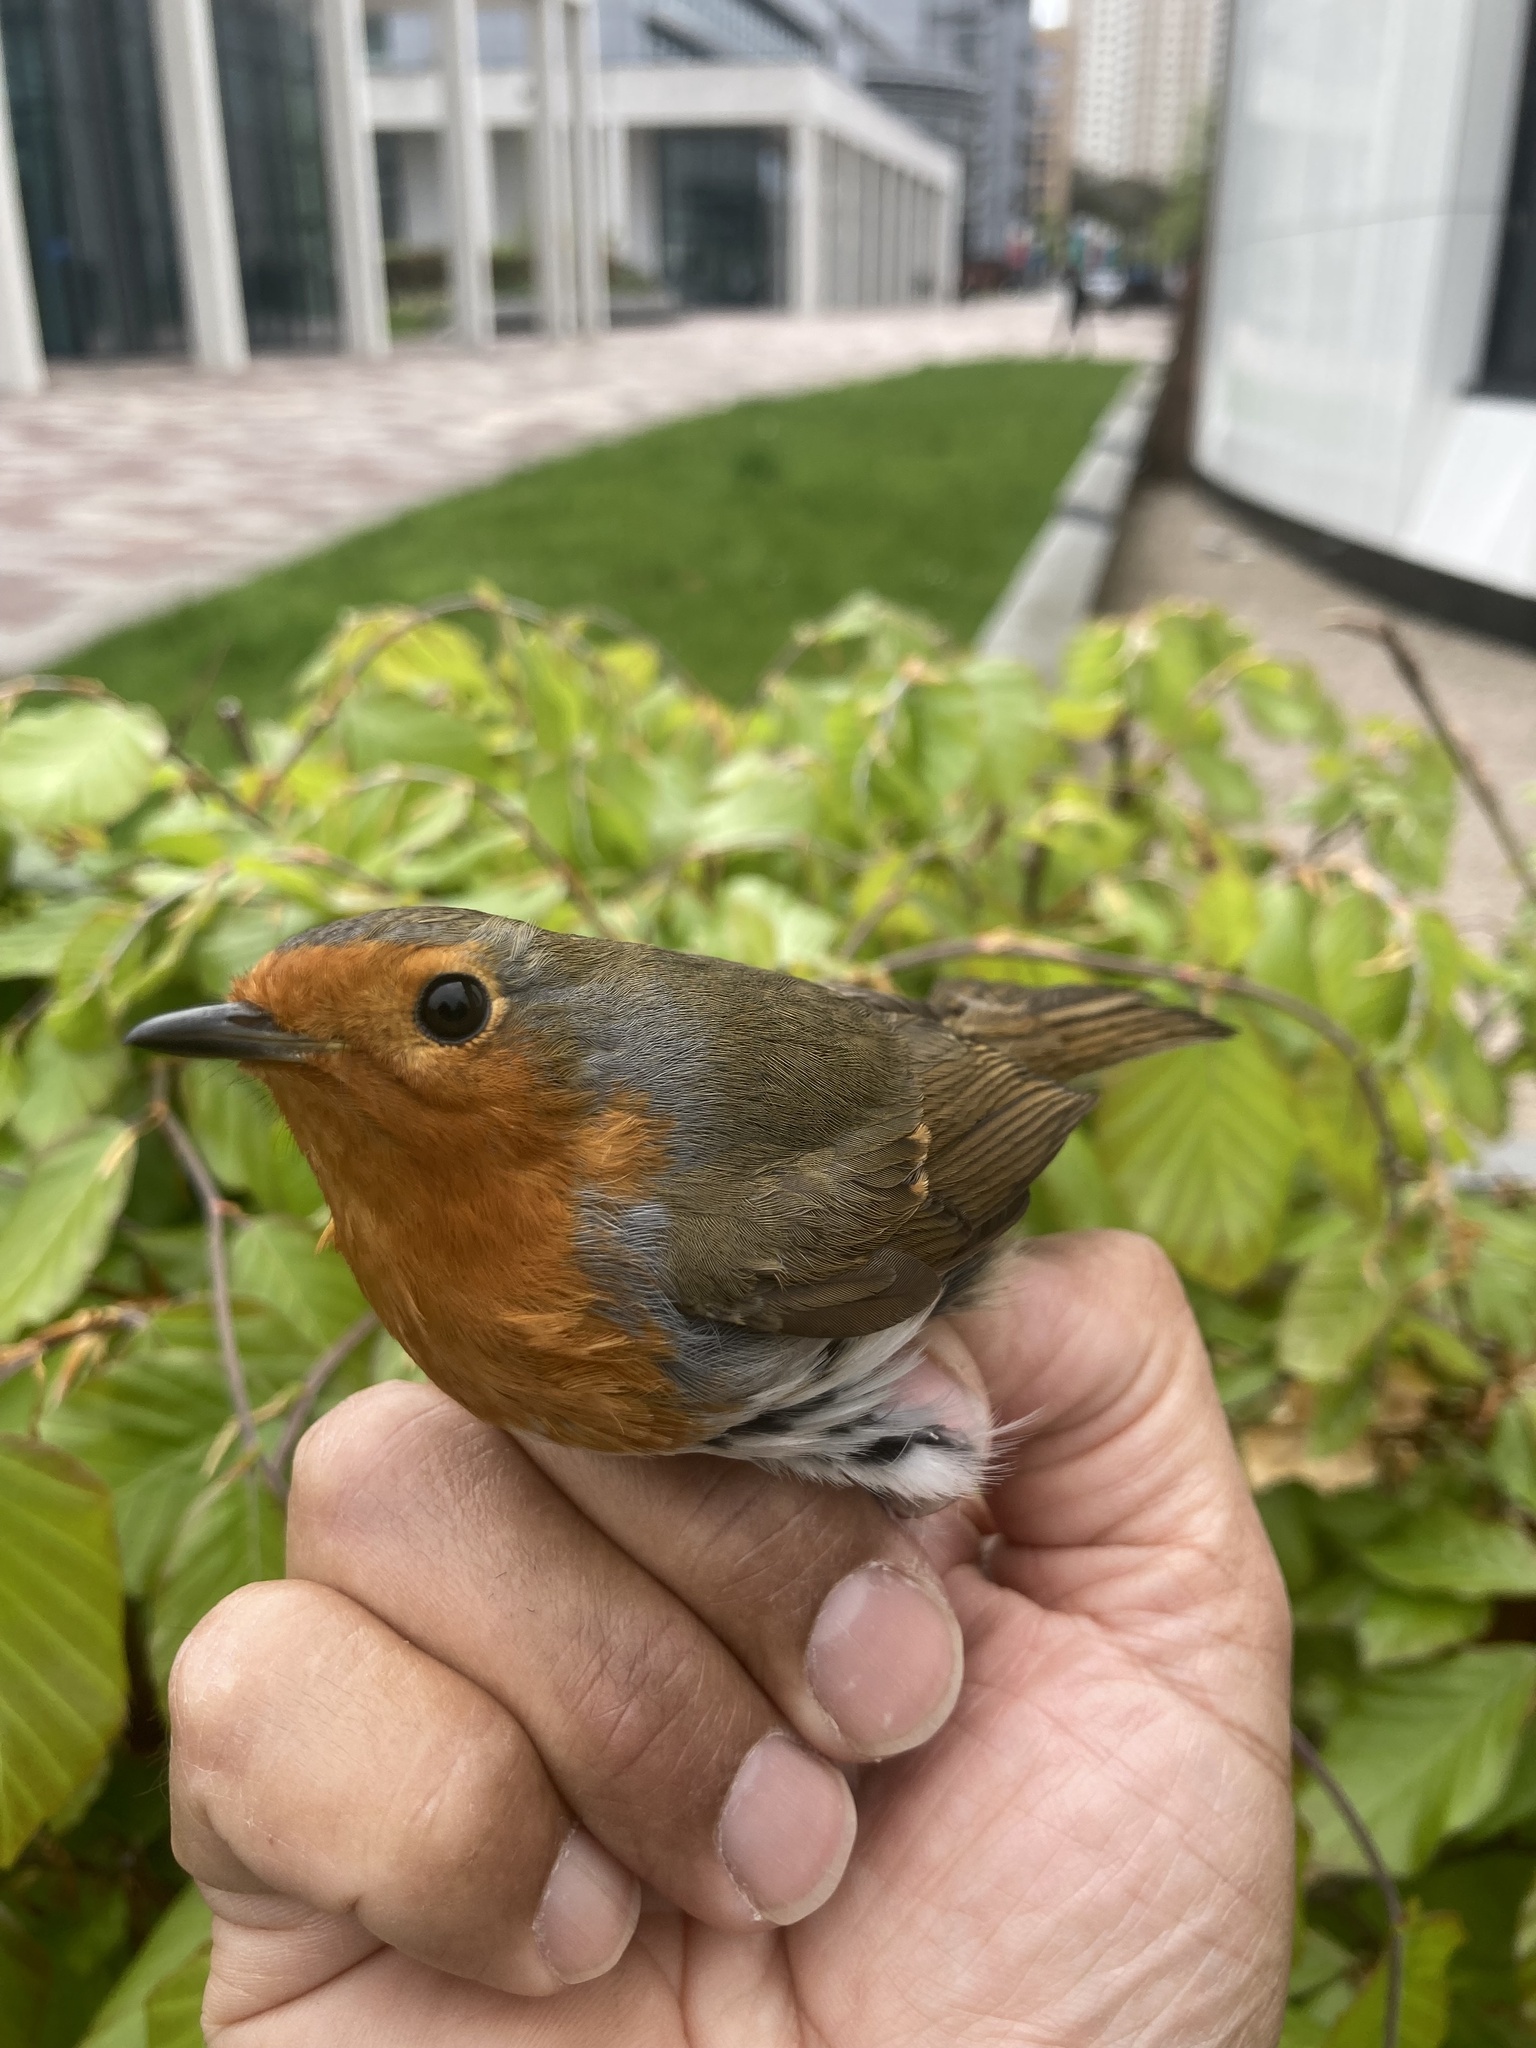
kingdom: Animalia
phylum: Chordata
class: Aves
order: Passeriformes
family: Muscicapidae
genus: Erithacus
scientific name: Erithacus rubecula
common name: European robin
